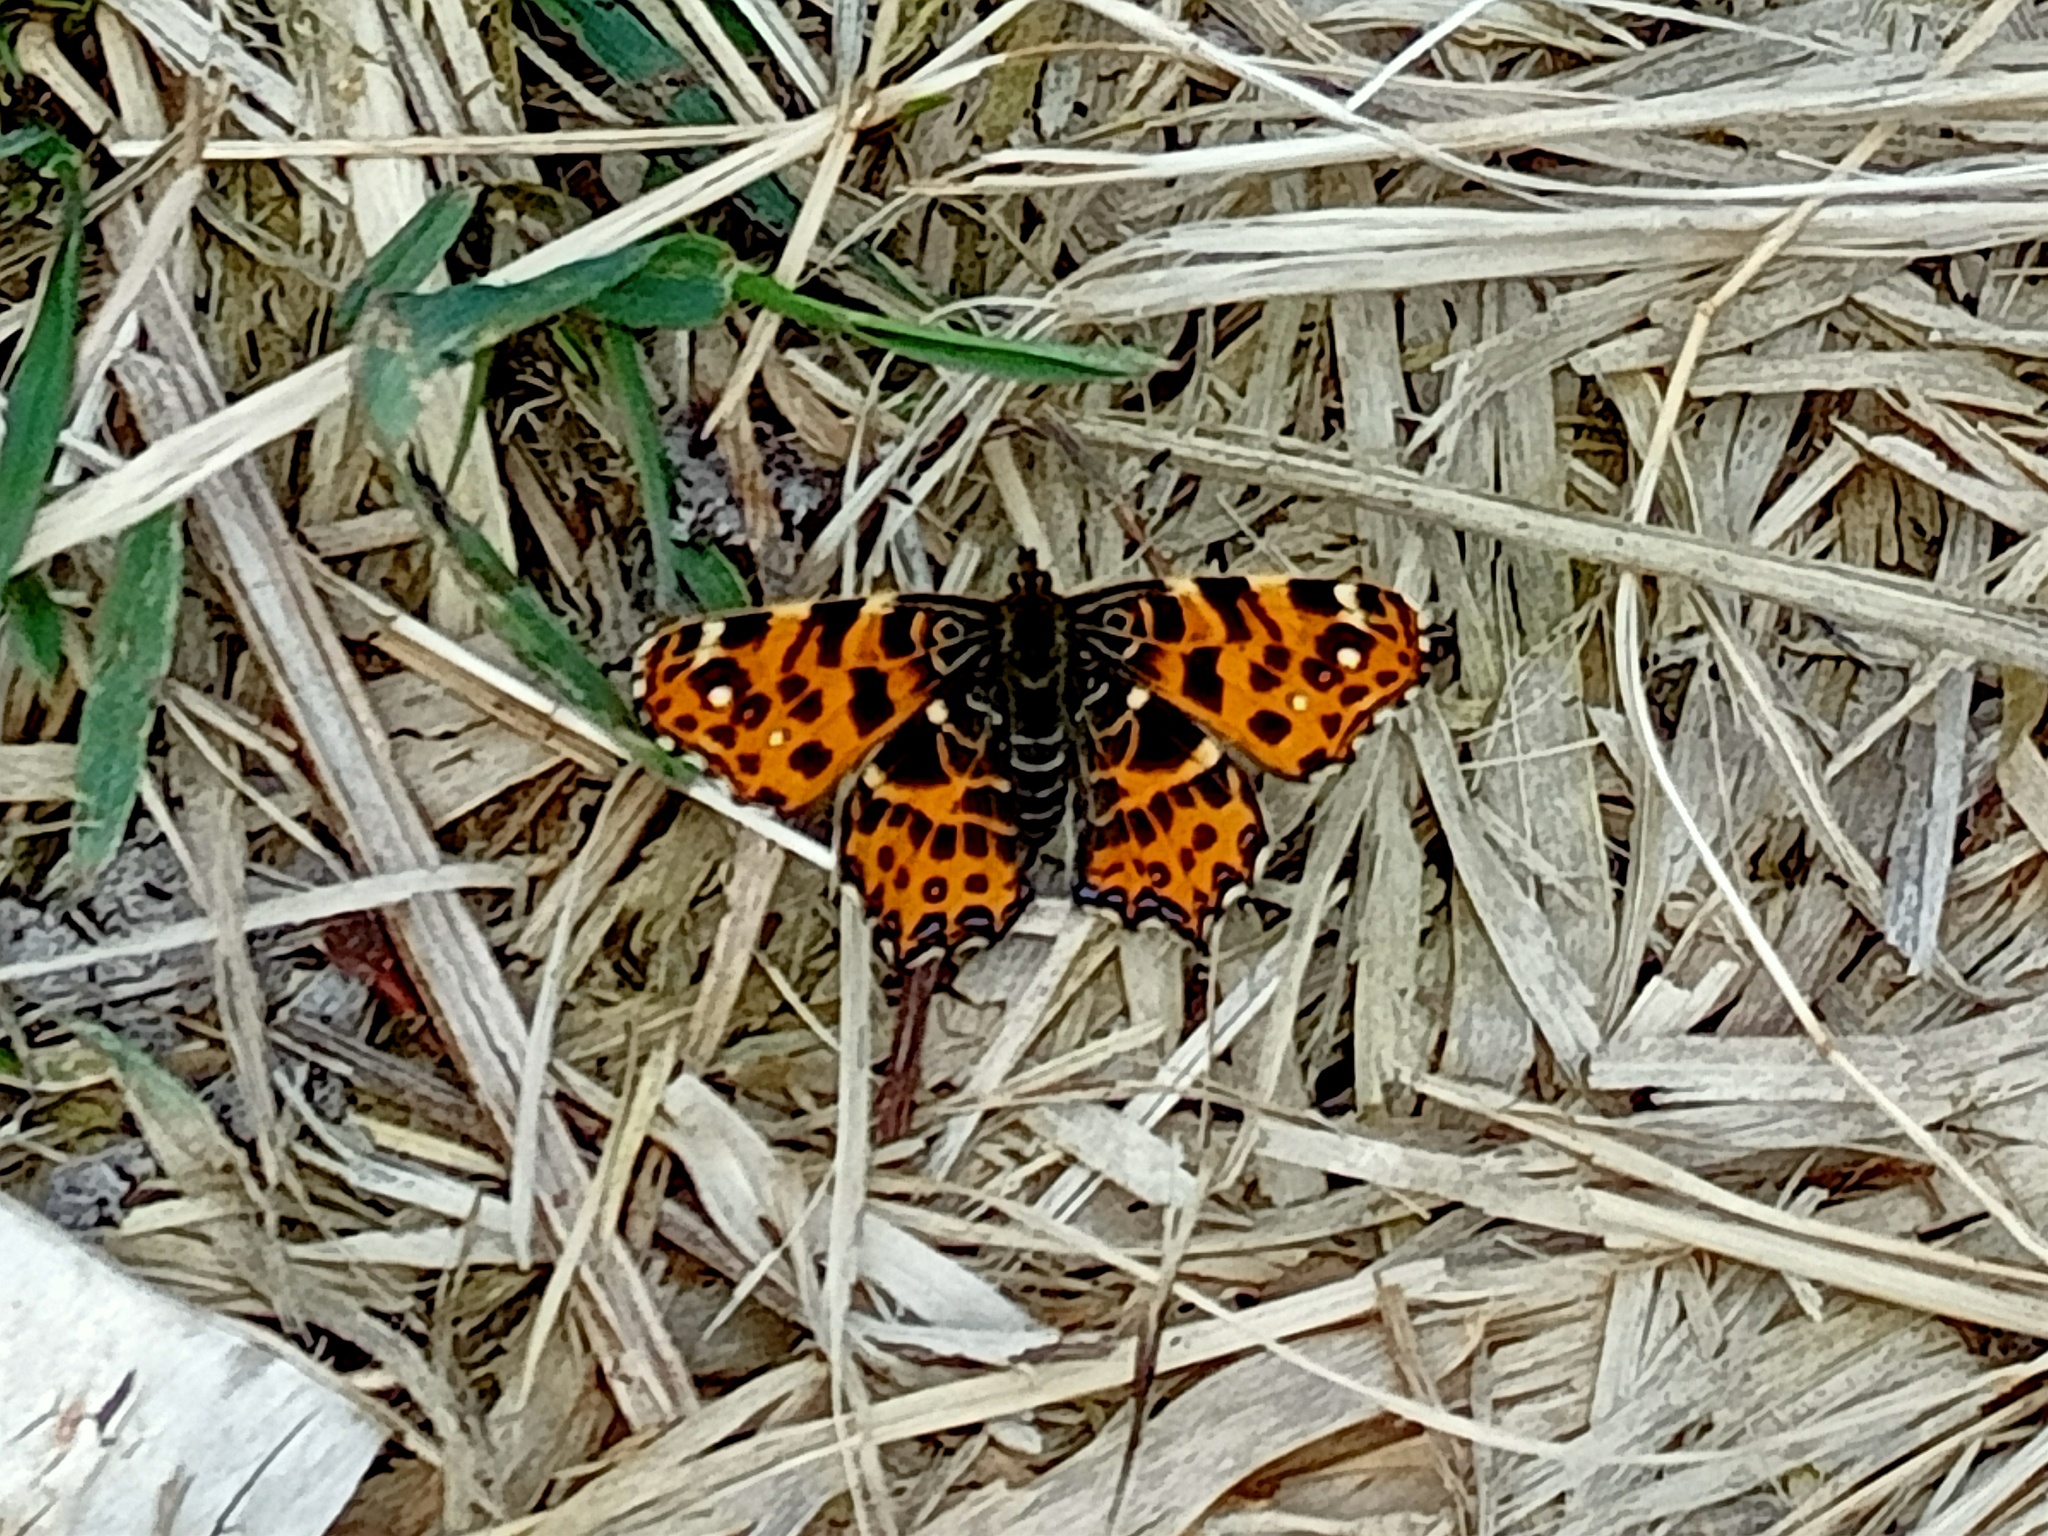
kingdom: Animalia
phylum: Arthropoda
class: Insecta
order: Lepidoptera
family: Nymphalidae
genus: Araschnia
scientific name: Araschnia levana
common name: Map butterfly
